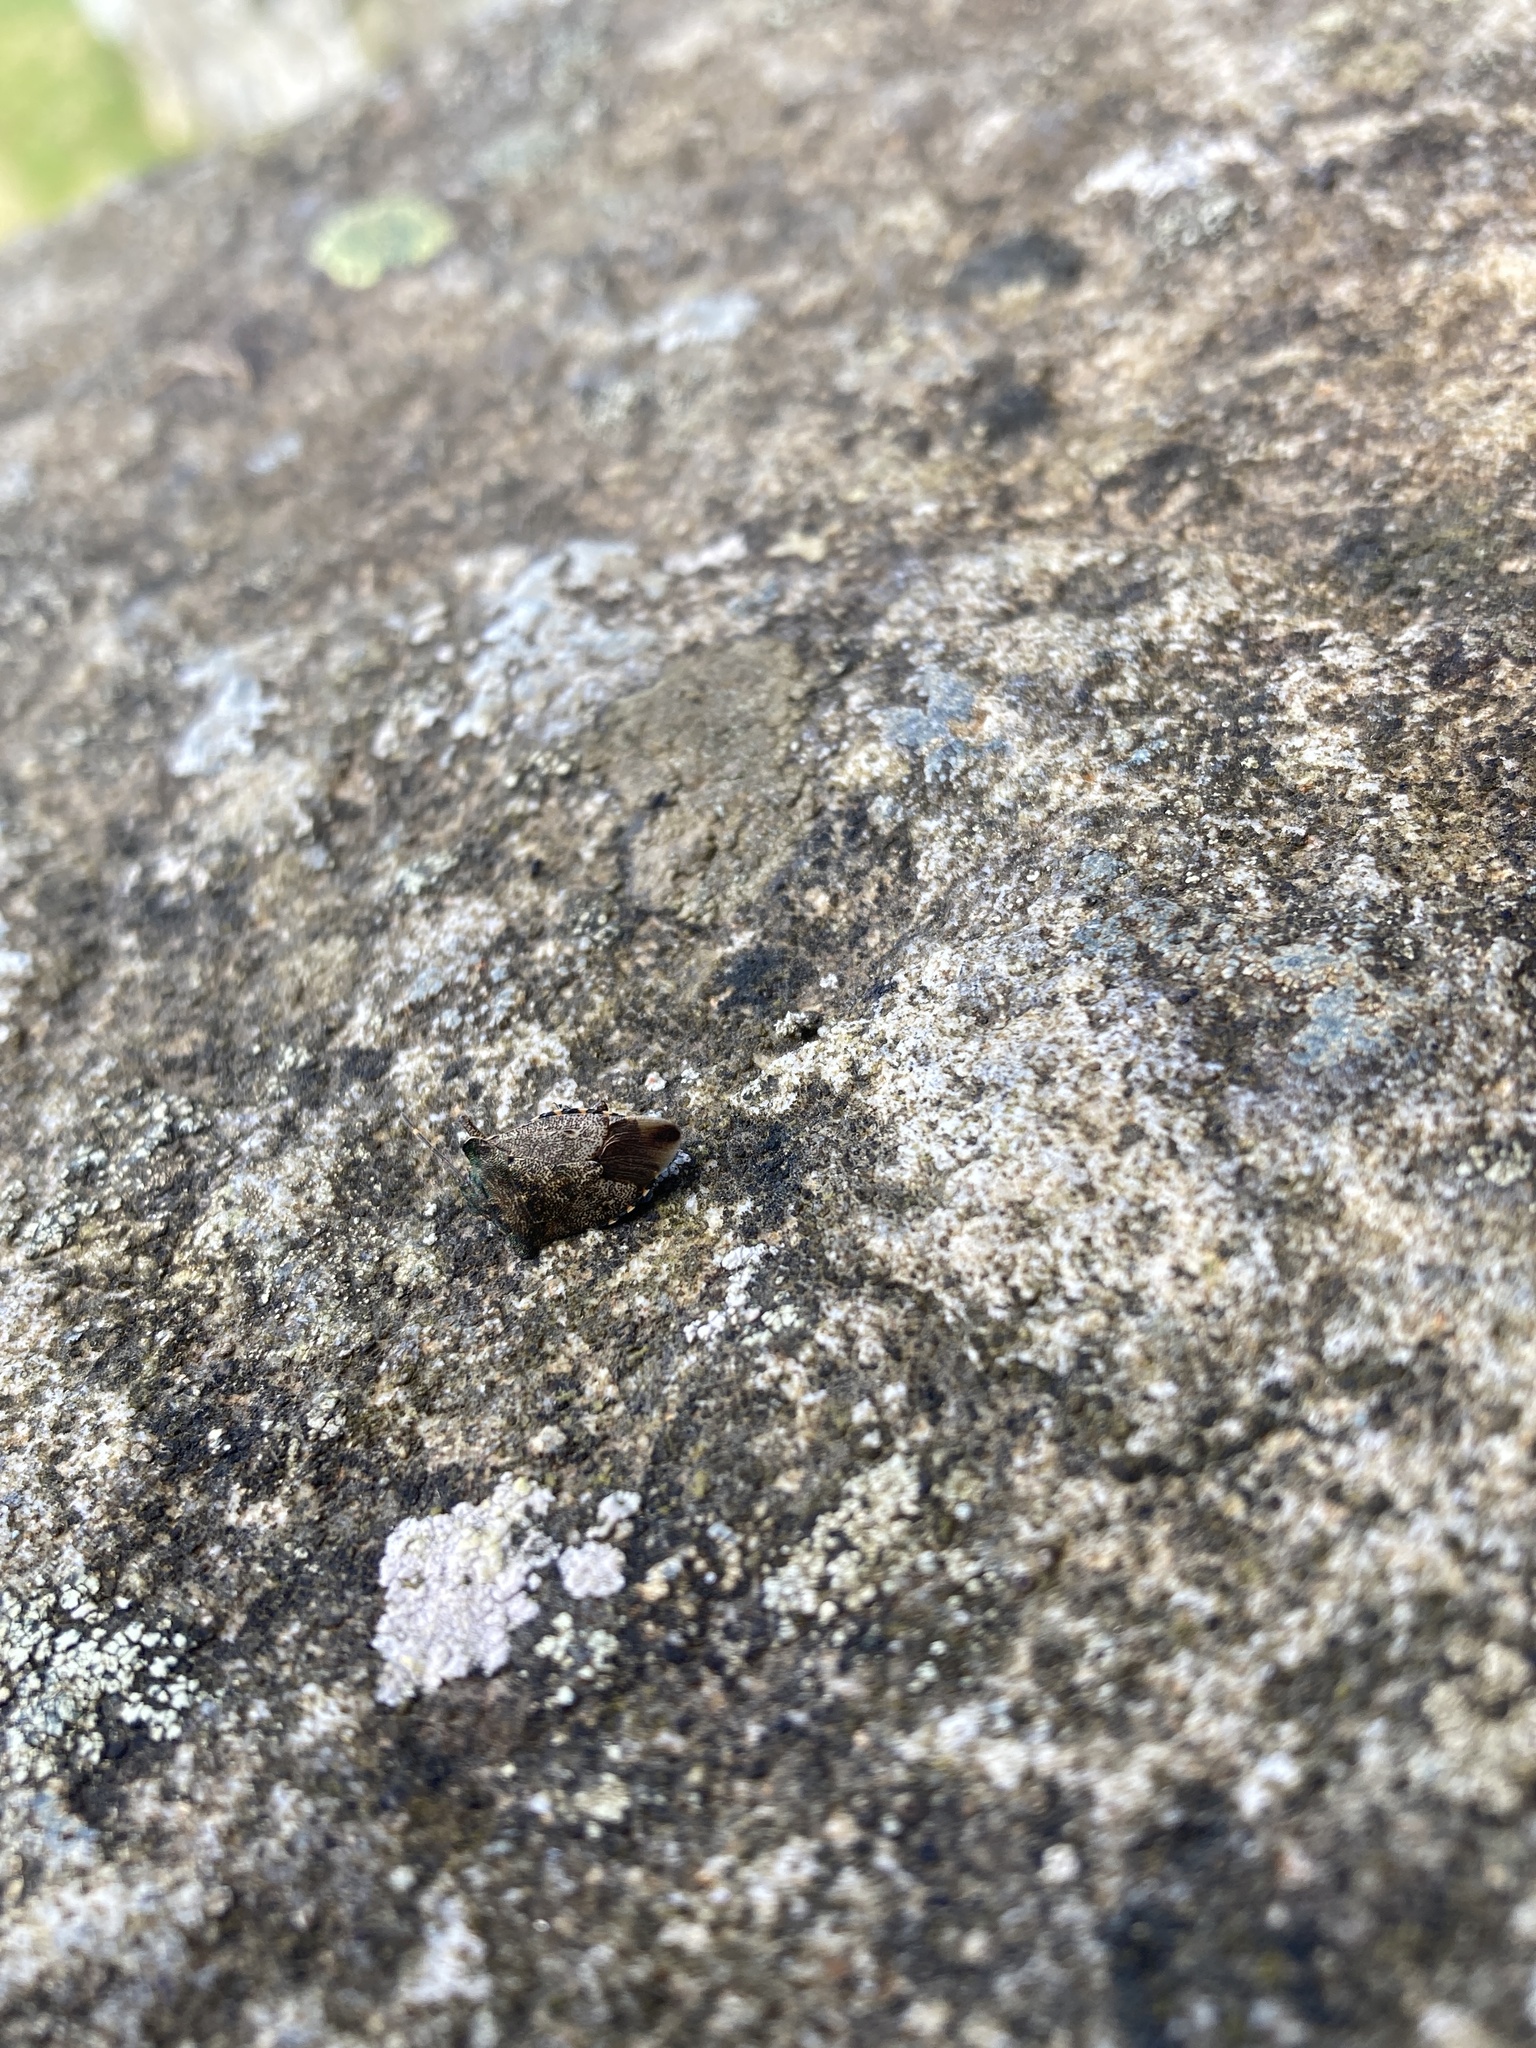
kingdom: Animalia
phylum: Arthropoda
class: Insecta
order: Hemiptera
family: Pentatomidae
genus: Troilus
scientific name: Troilus luridus
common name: Bronze shieldbug
